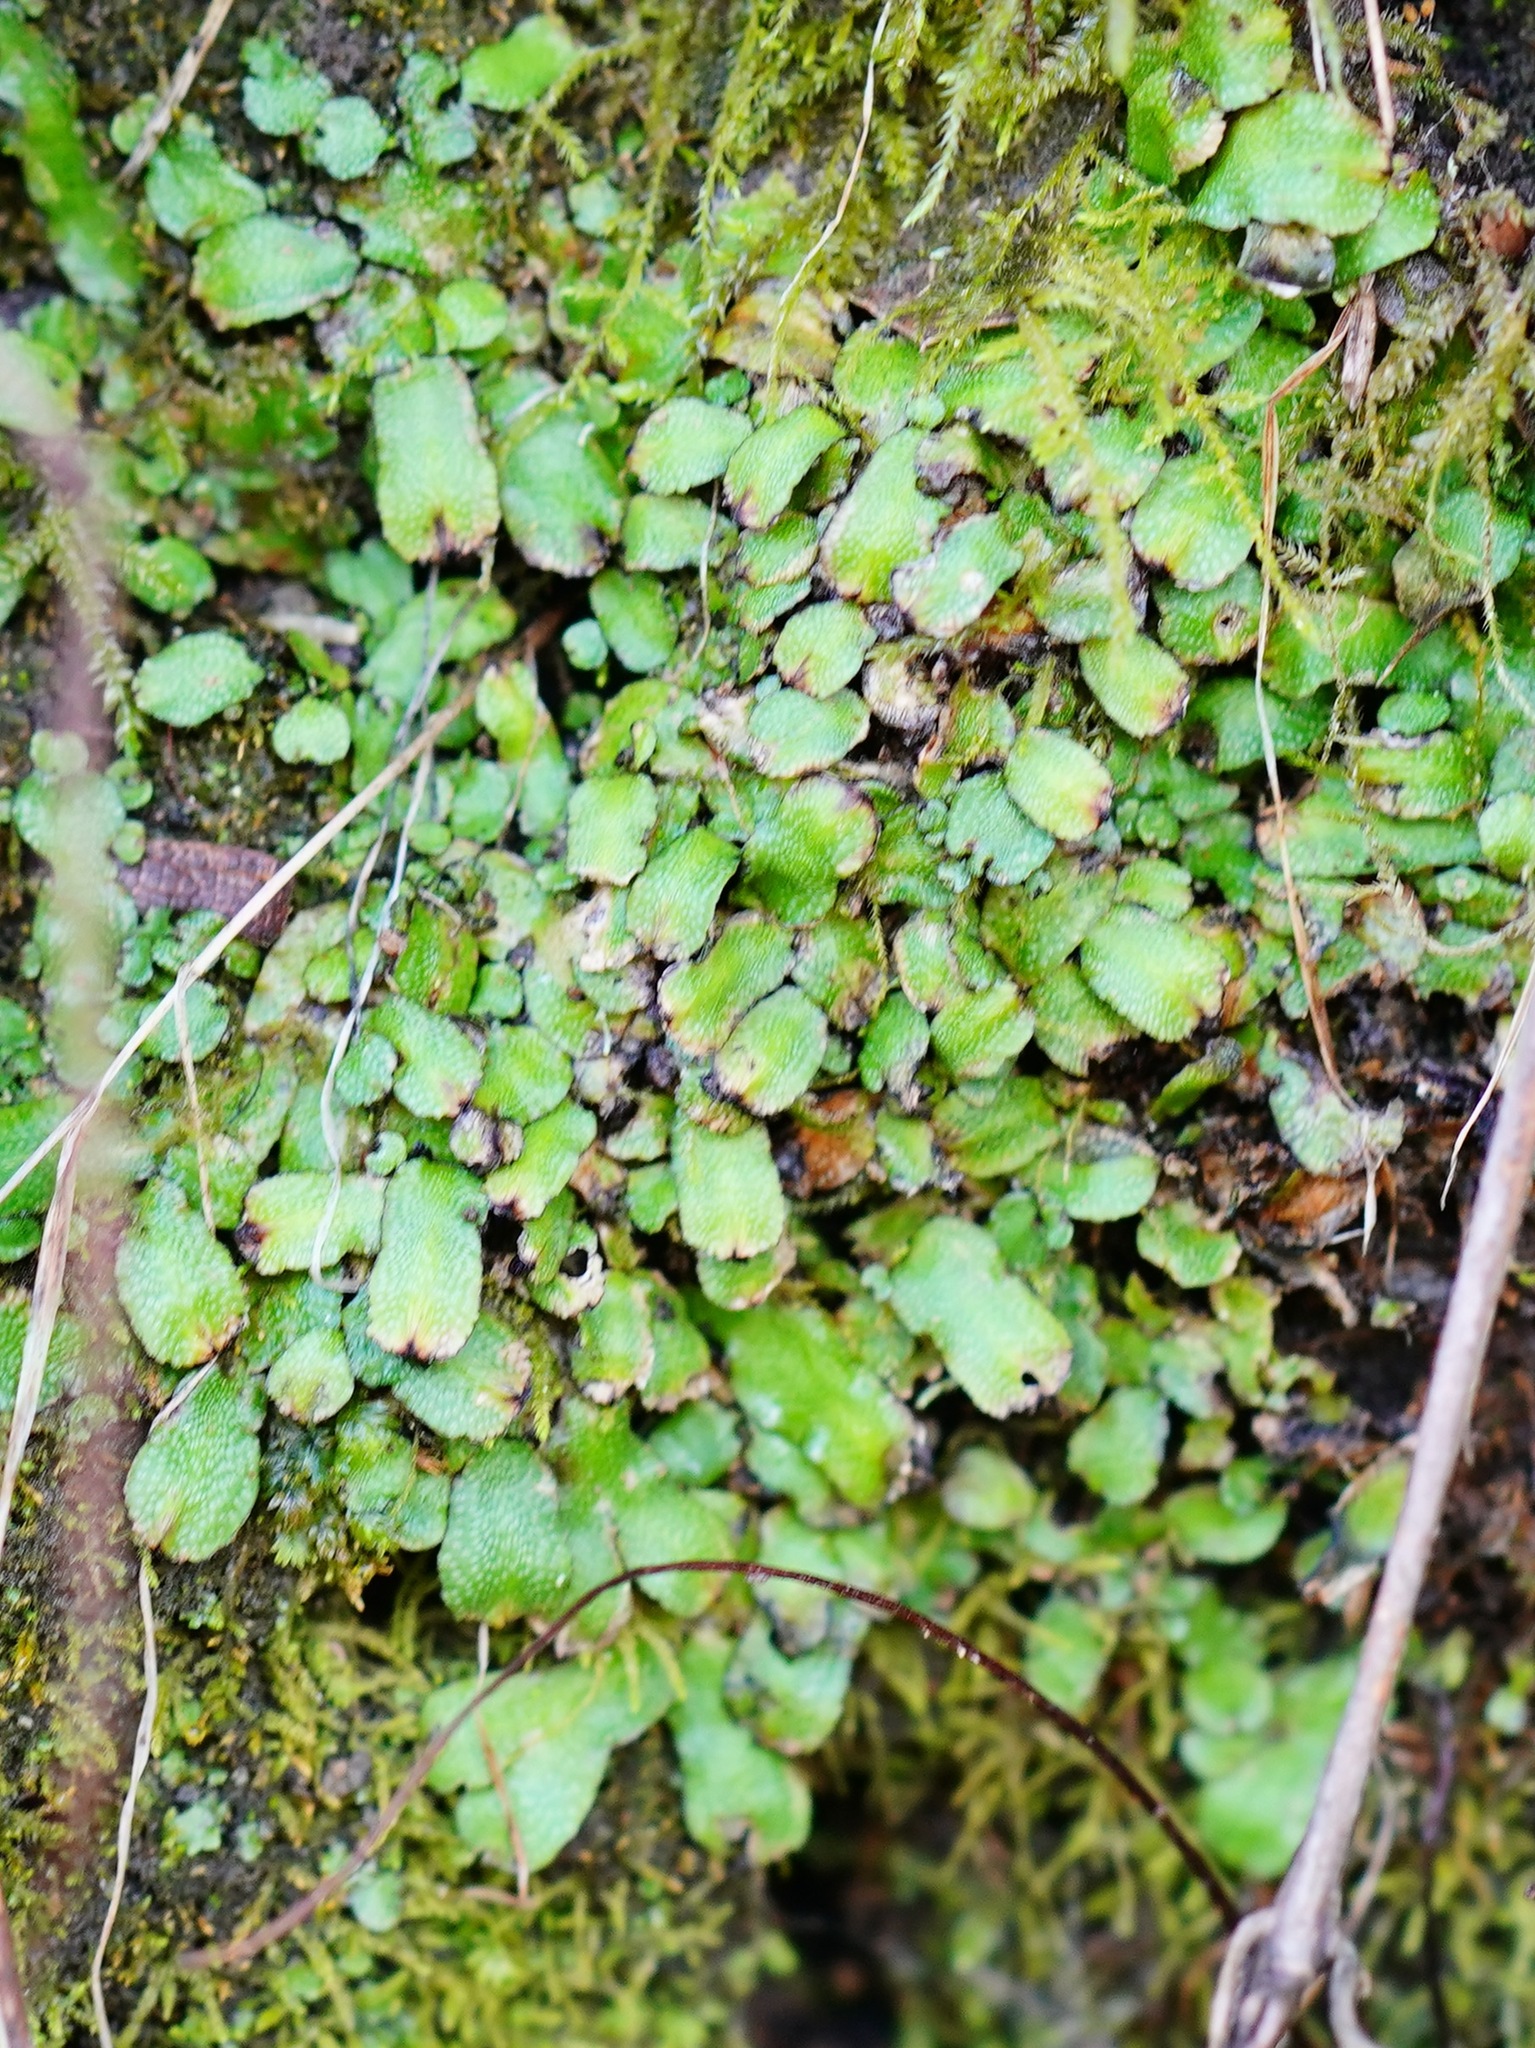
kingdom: Plantae
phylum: Marchantiophyta
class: Marchantiopsida
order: Marchantiales
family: Targioniaceae
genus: Targionia
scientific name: Targionia hypophylla
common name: Orobus-seed liverwort
